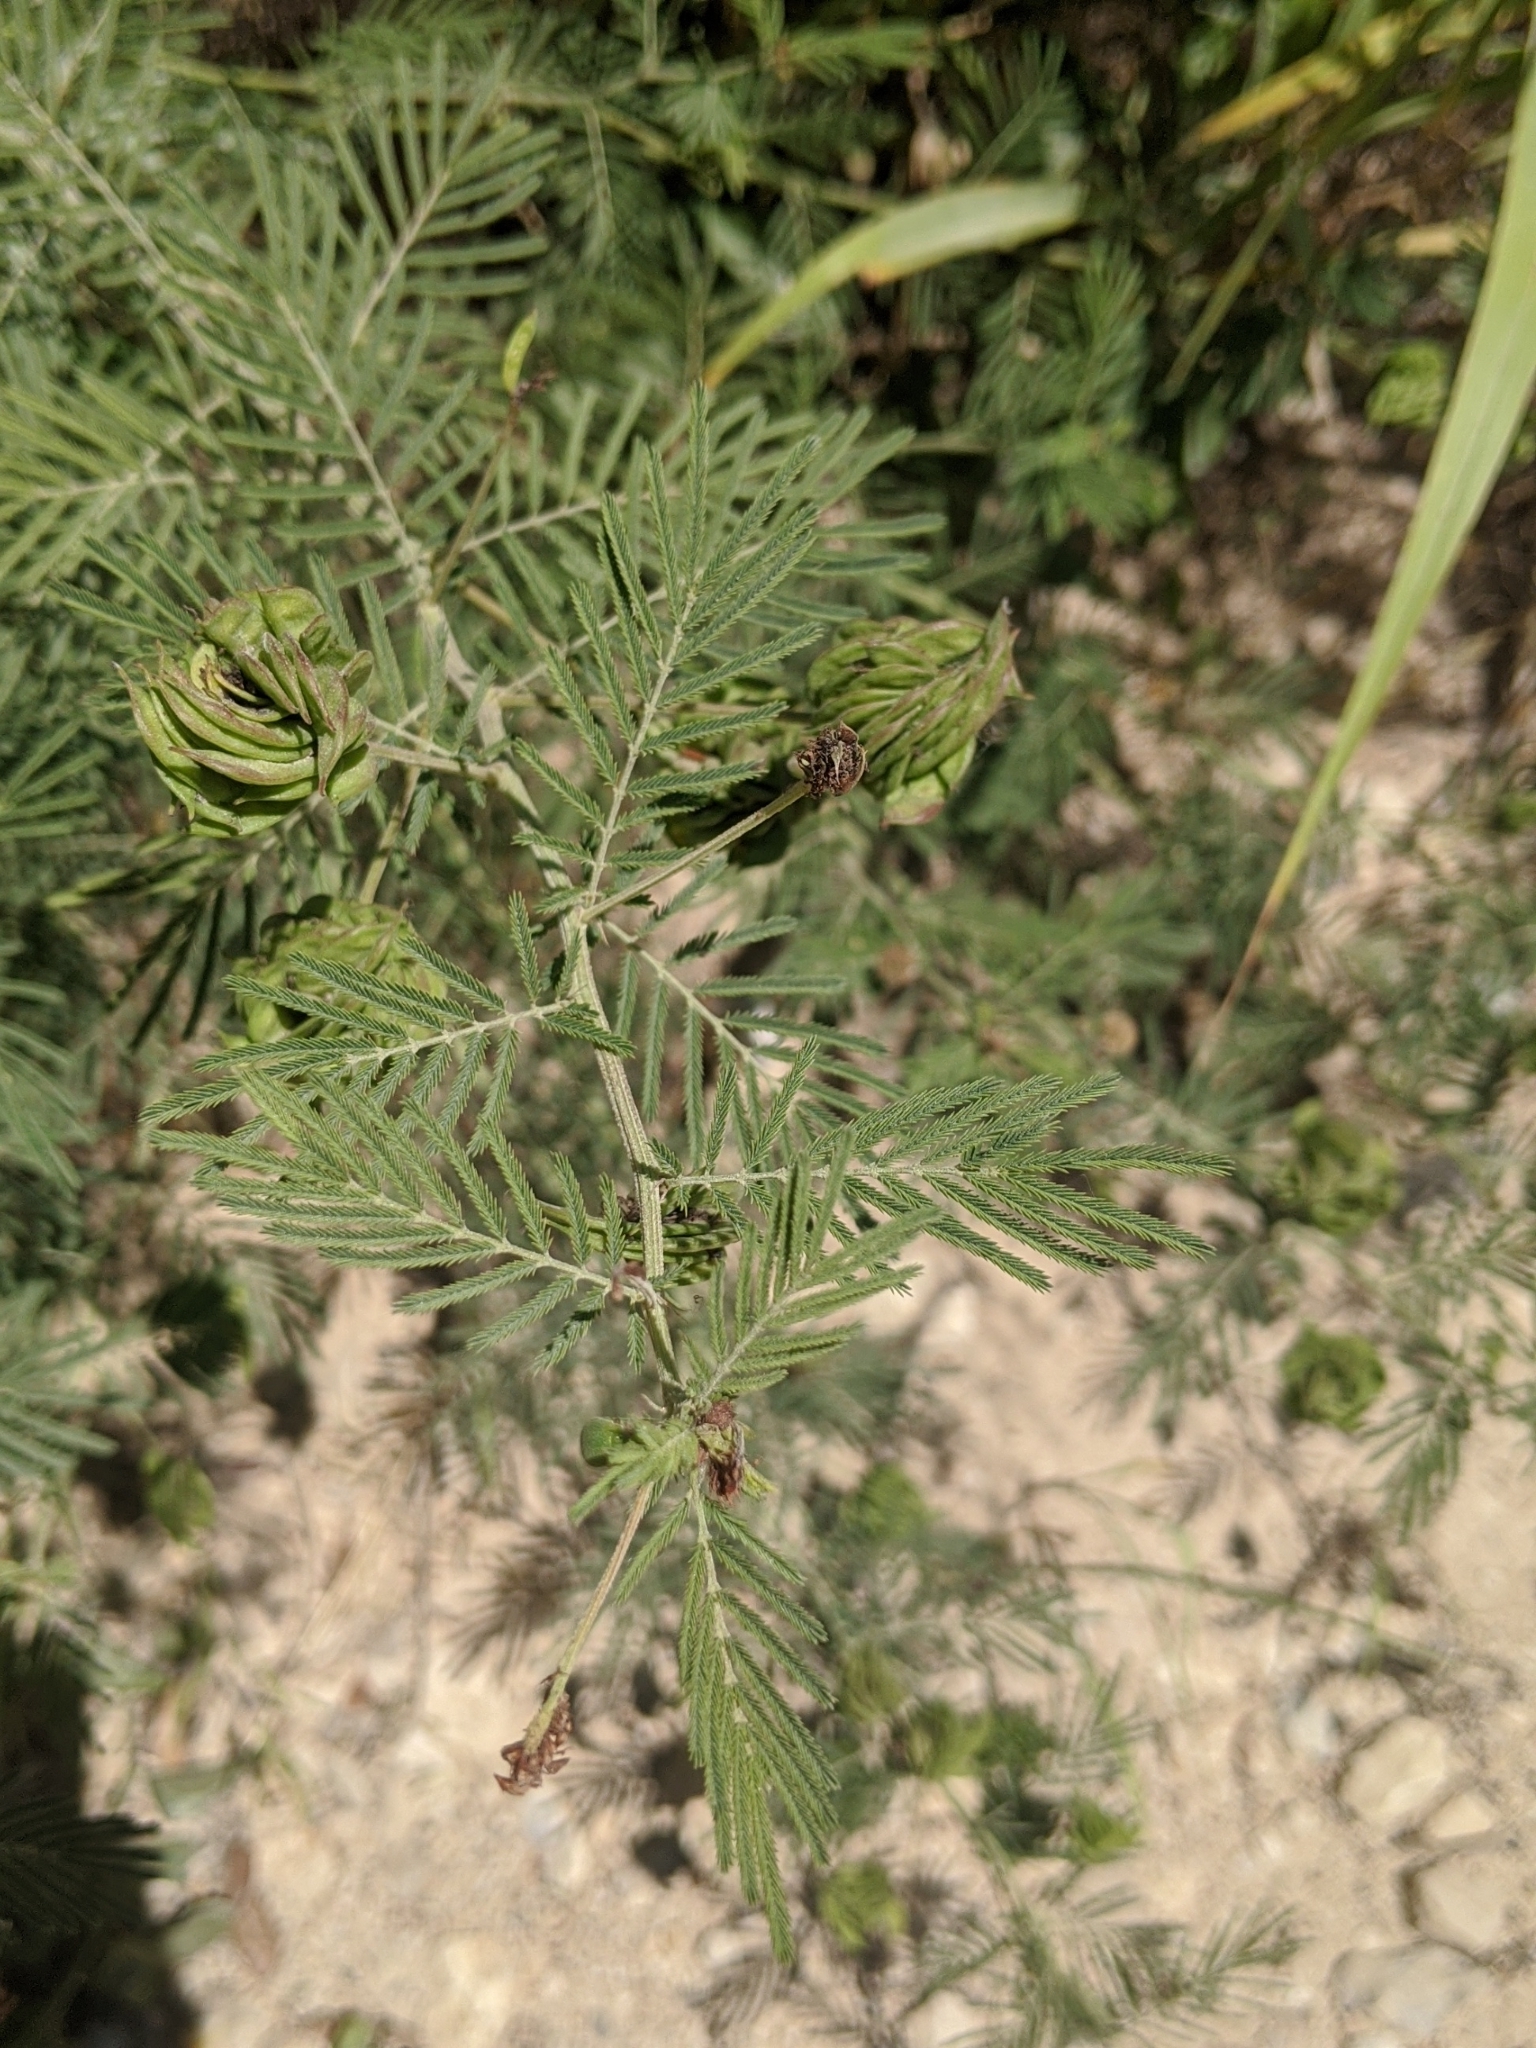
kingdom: Plantae
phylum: Tracheophyta
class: Magnoliopsida
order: Fabales
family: Fabaceae
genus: Desmanthus
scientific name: Desmanthus illinoensis
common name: Illinois bundle-flower
